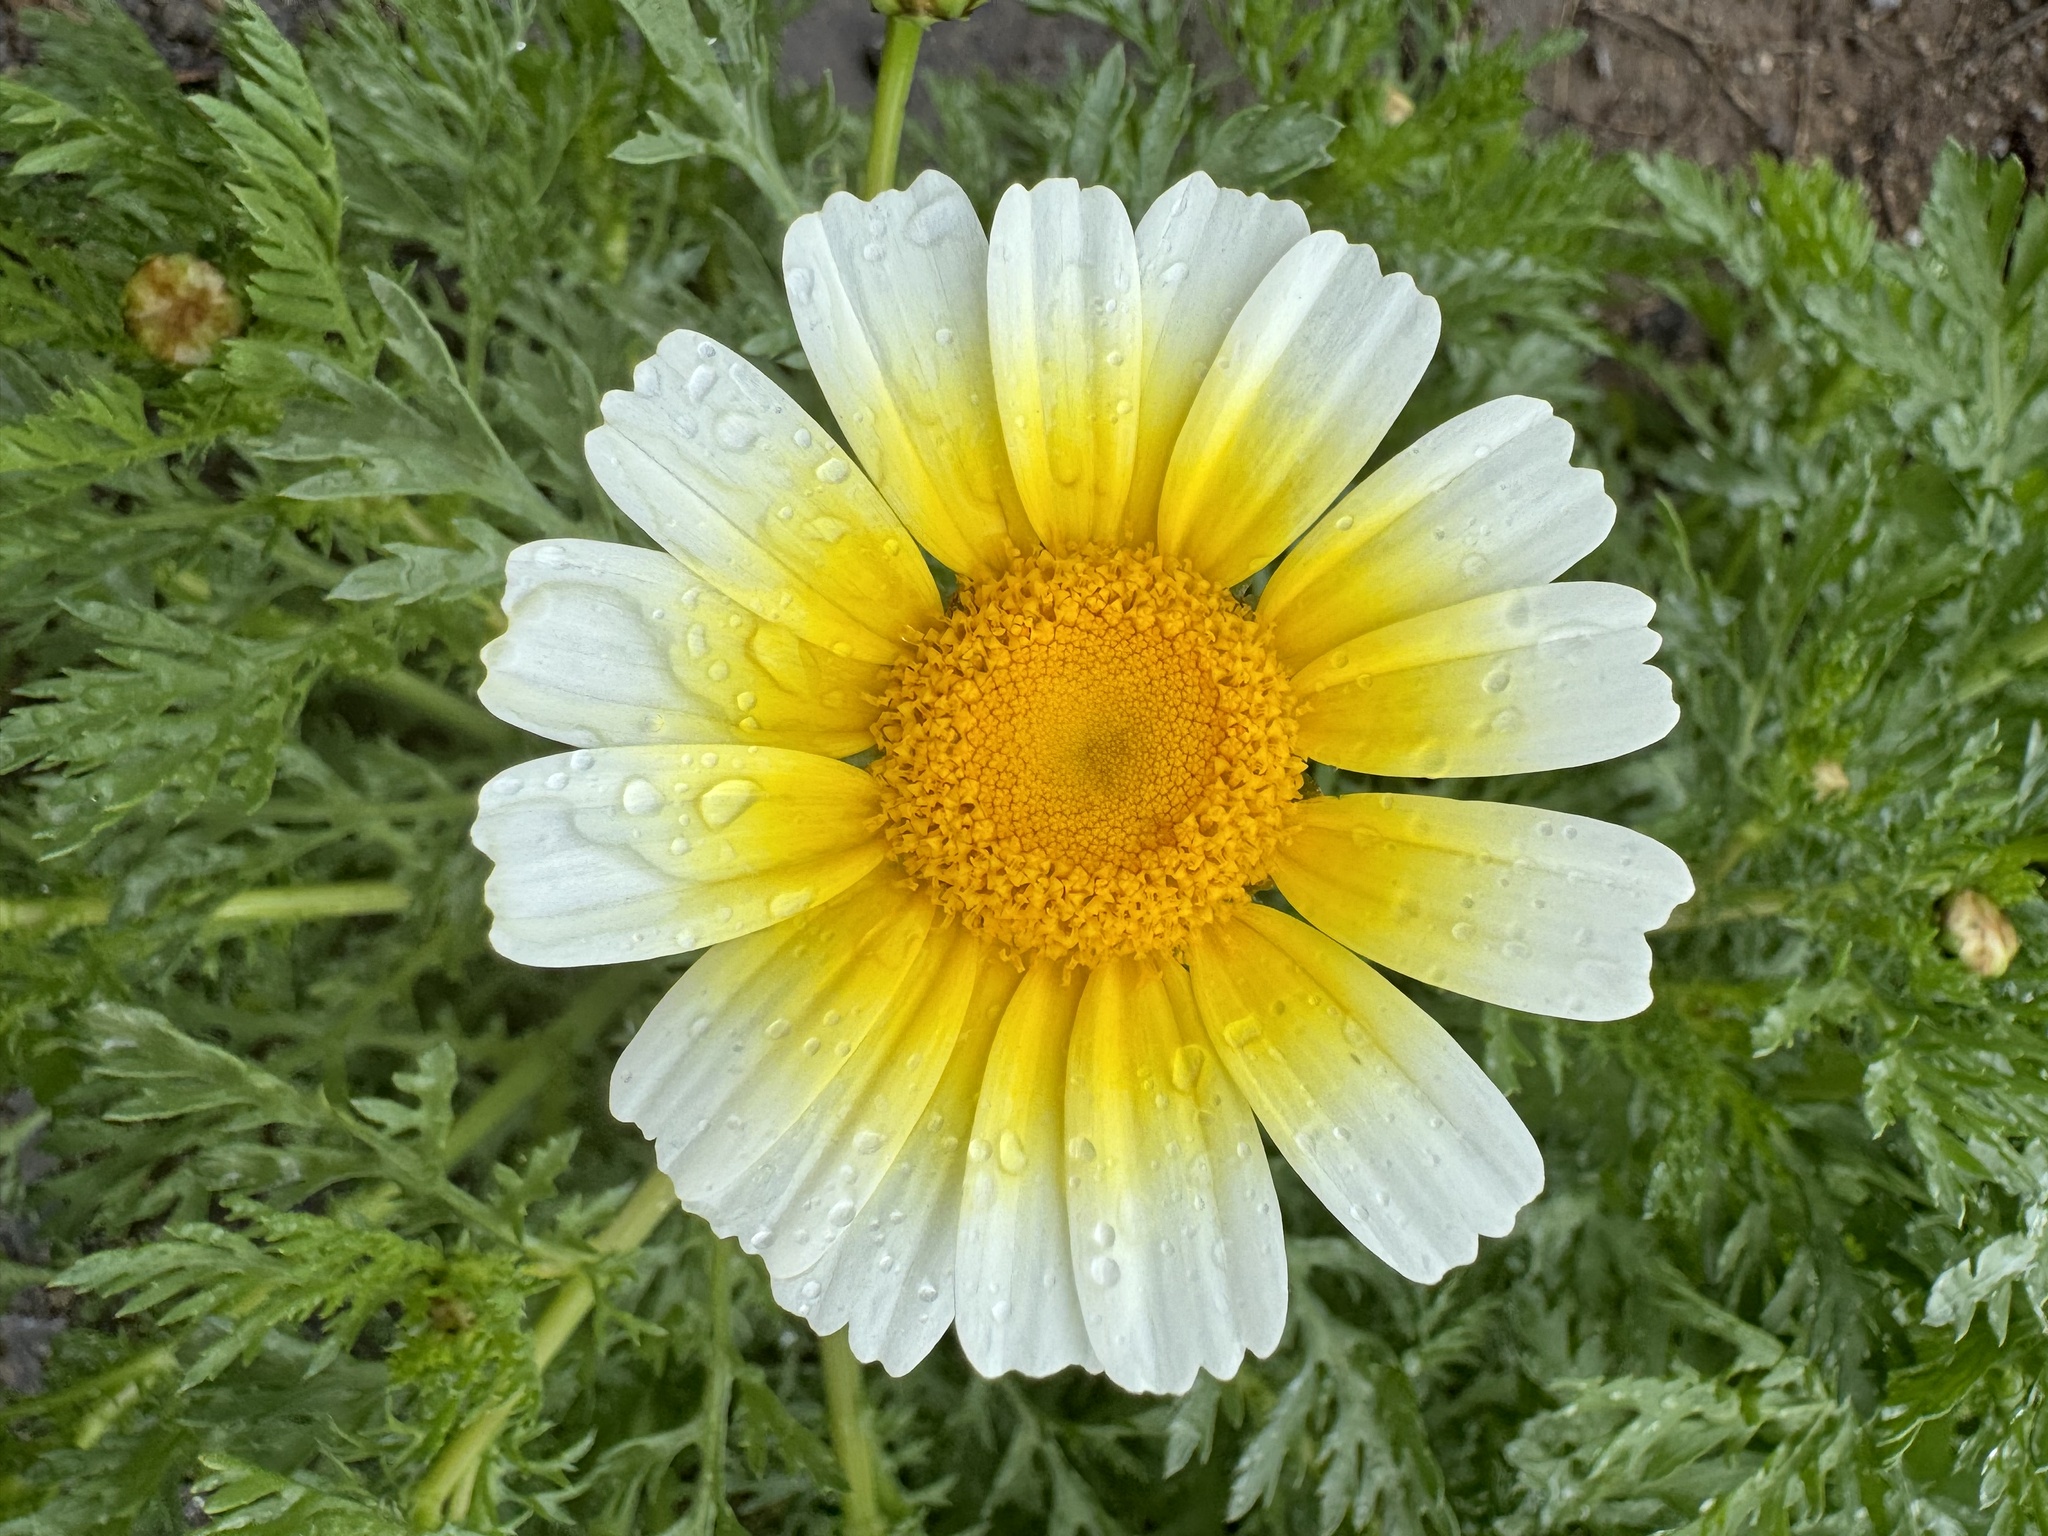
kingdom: Plantae
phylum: Tracheophyta
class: Magnoliopsida
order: Asterales
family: Asteraceae
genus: Glebionis
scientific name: Glebionis coronaria
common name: Crowndaisy
